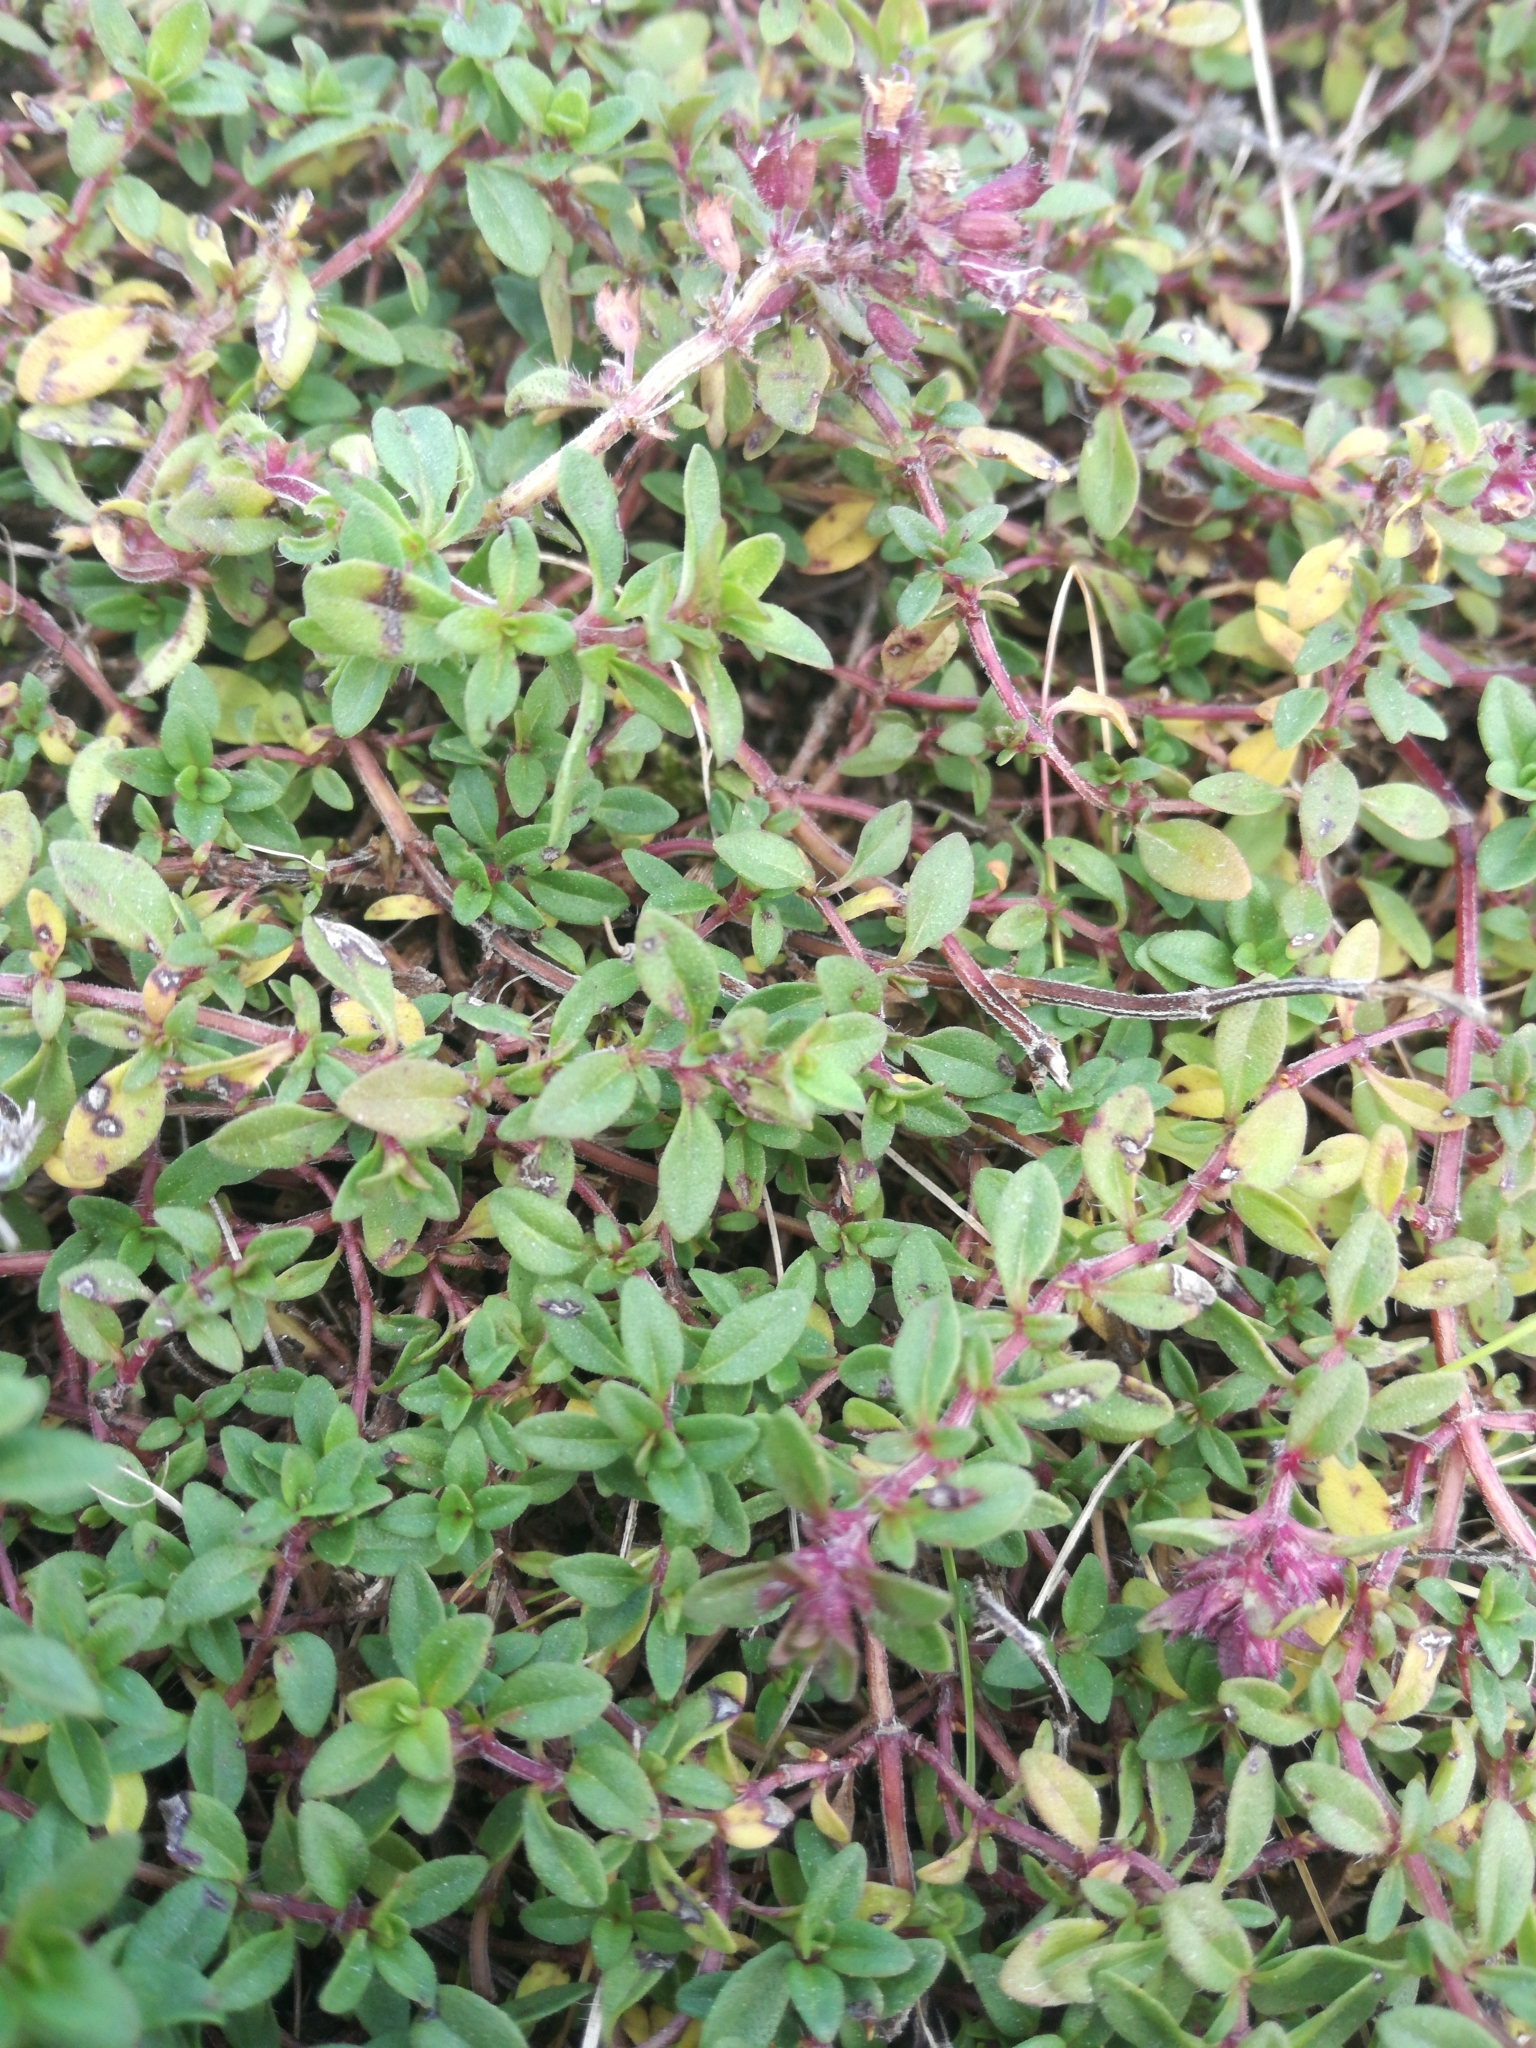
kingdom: Plantae
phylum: Tracheophyta
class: Magnoliopsida
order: Lamiales
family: Lamiaceae
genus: Thymus
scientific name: Thymus pulegioides
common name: Large thyme
